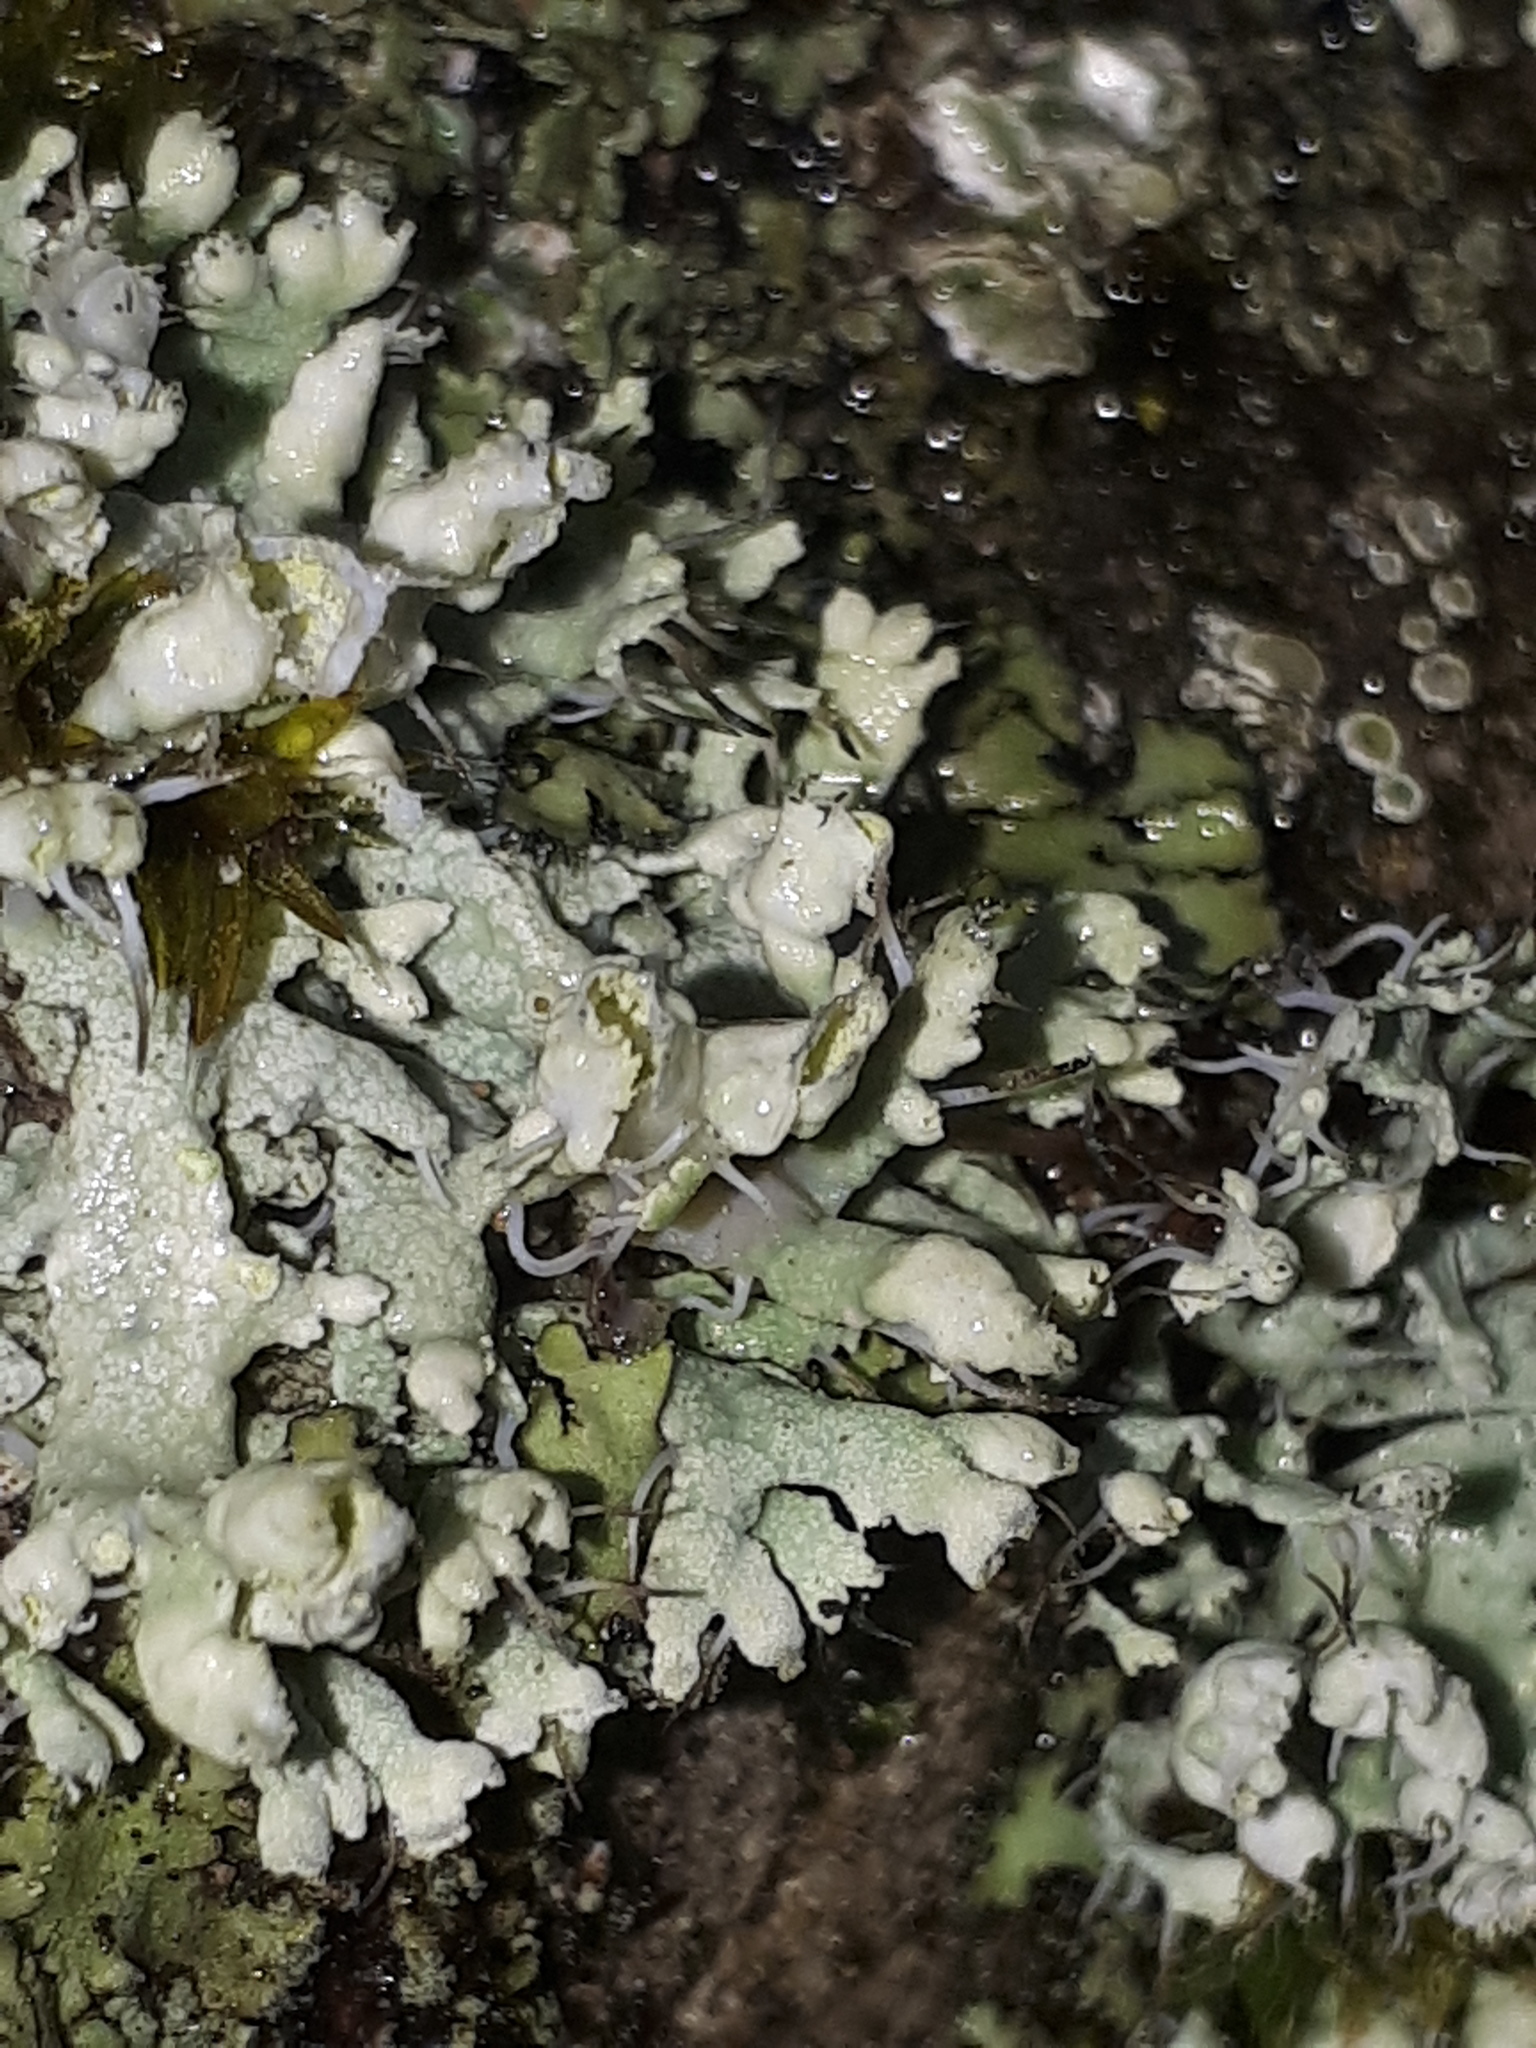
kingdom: Fungi
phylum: Ascomycota
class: Lecanoromycetes
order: Caliciales
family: Physciaceae
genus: Physcia
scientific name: Physcia adscendens
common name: Hooded rosette lichen
